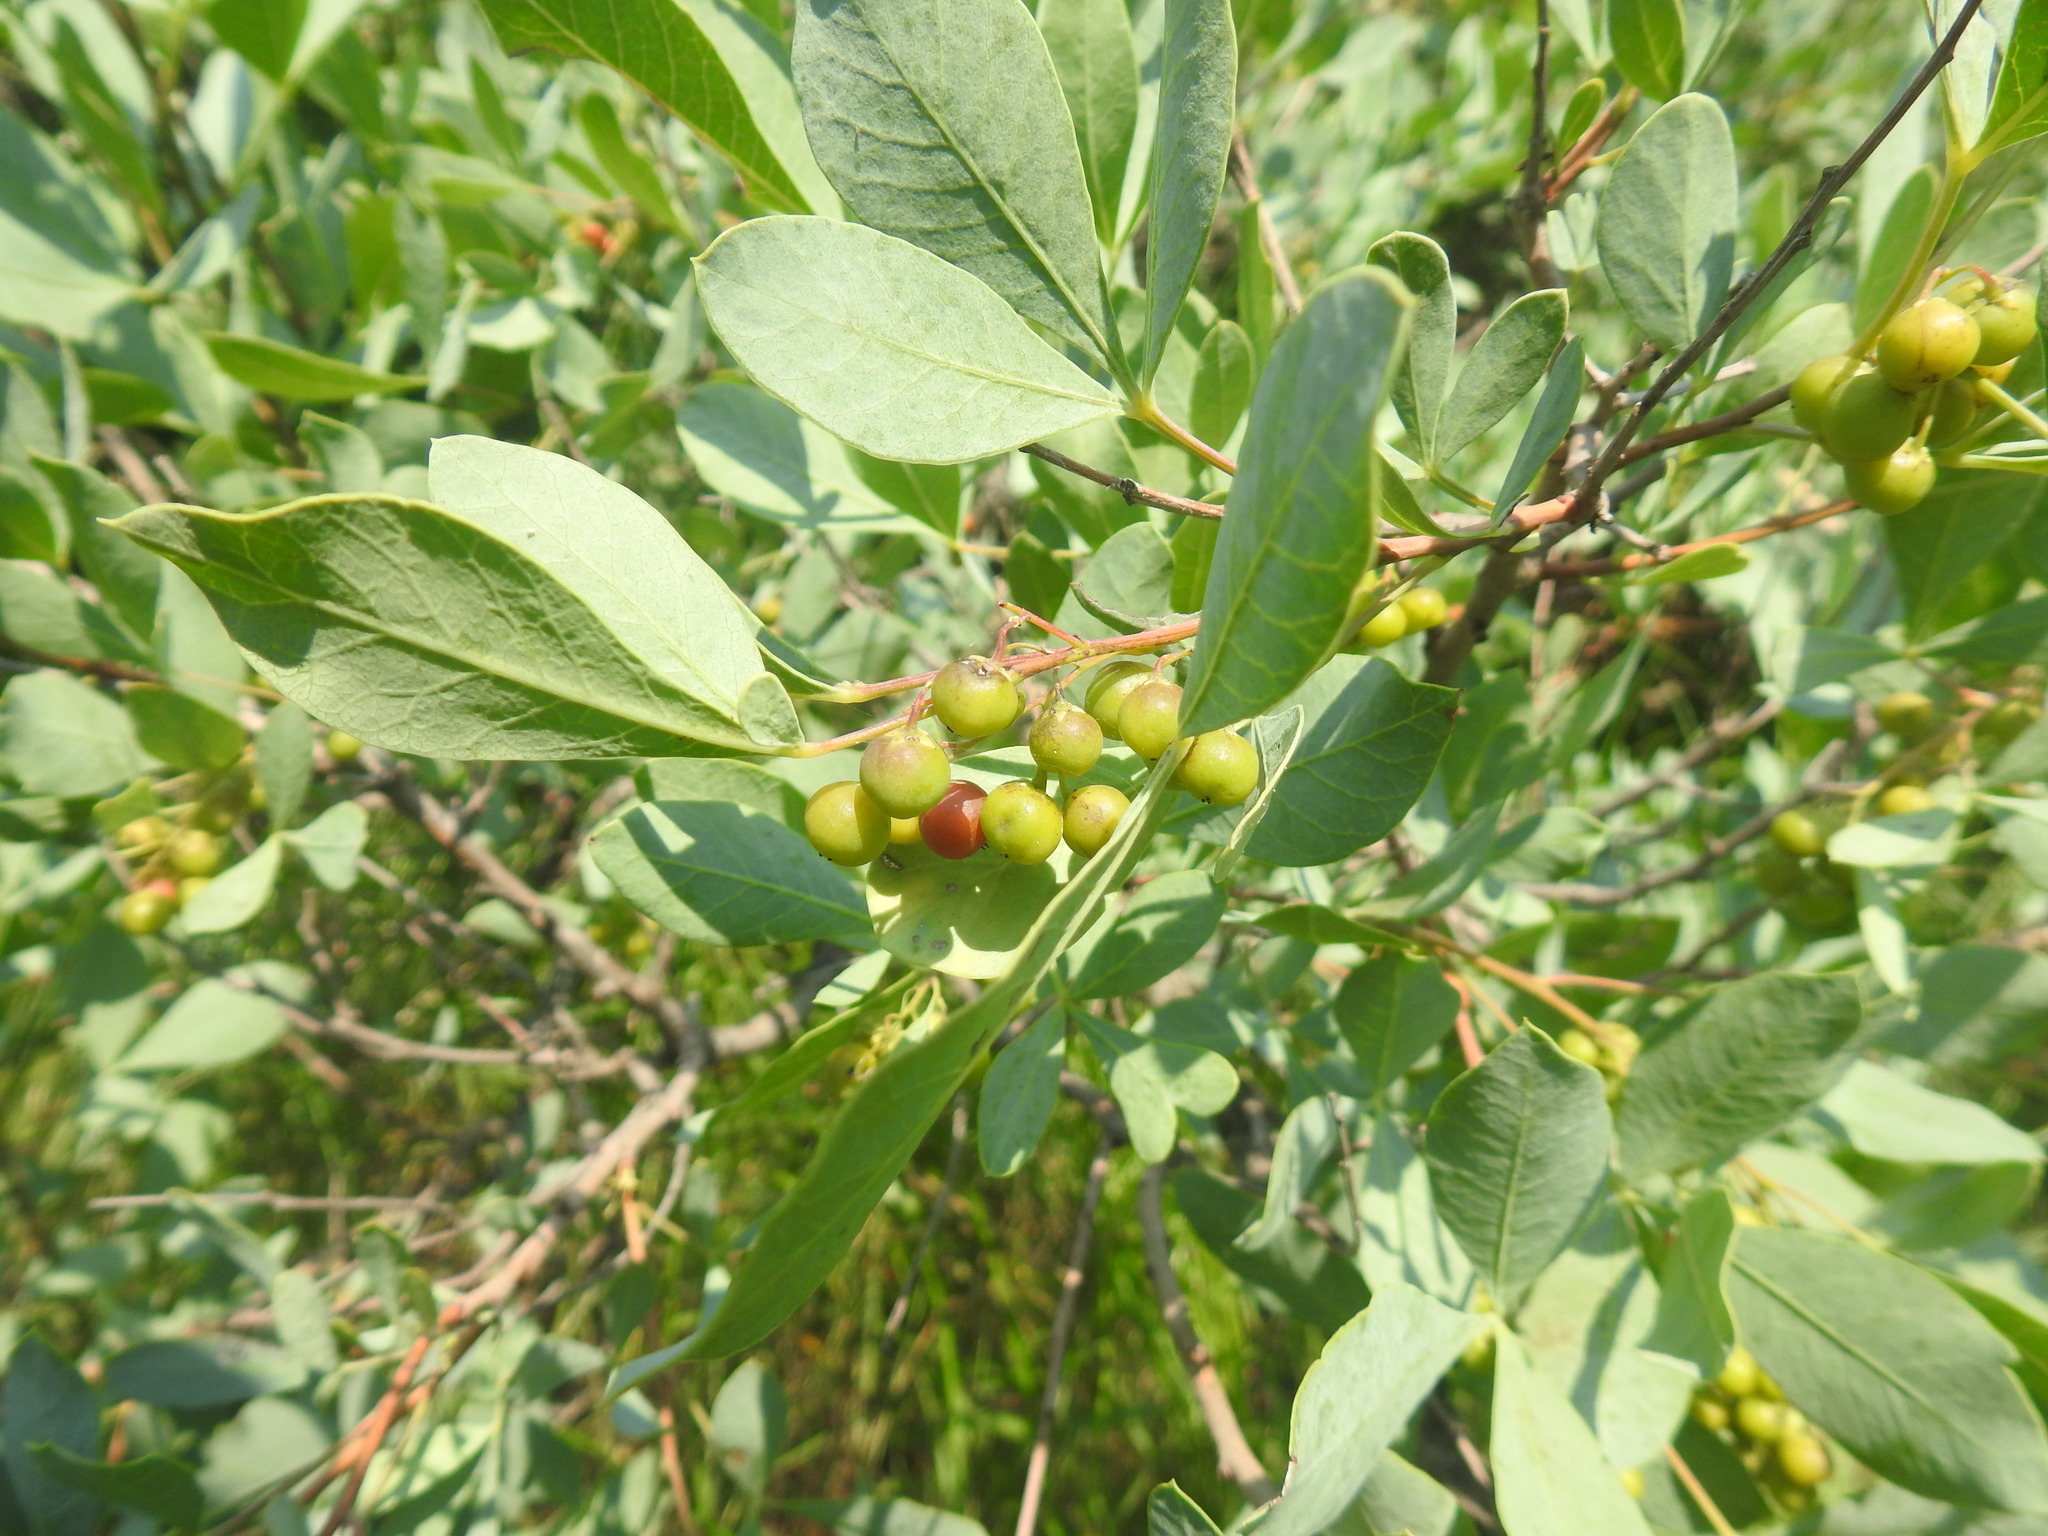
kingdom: Plantae
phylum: Tracheophyta
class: Magnoliopsida
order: Sapindales
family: Anacardiaceae
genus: Searsia
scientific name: Searsia zeyheri
